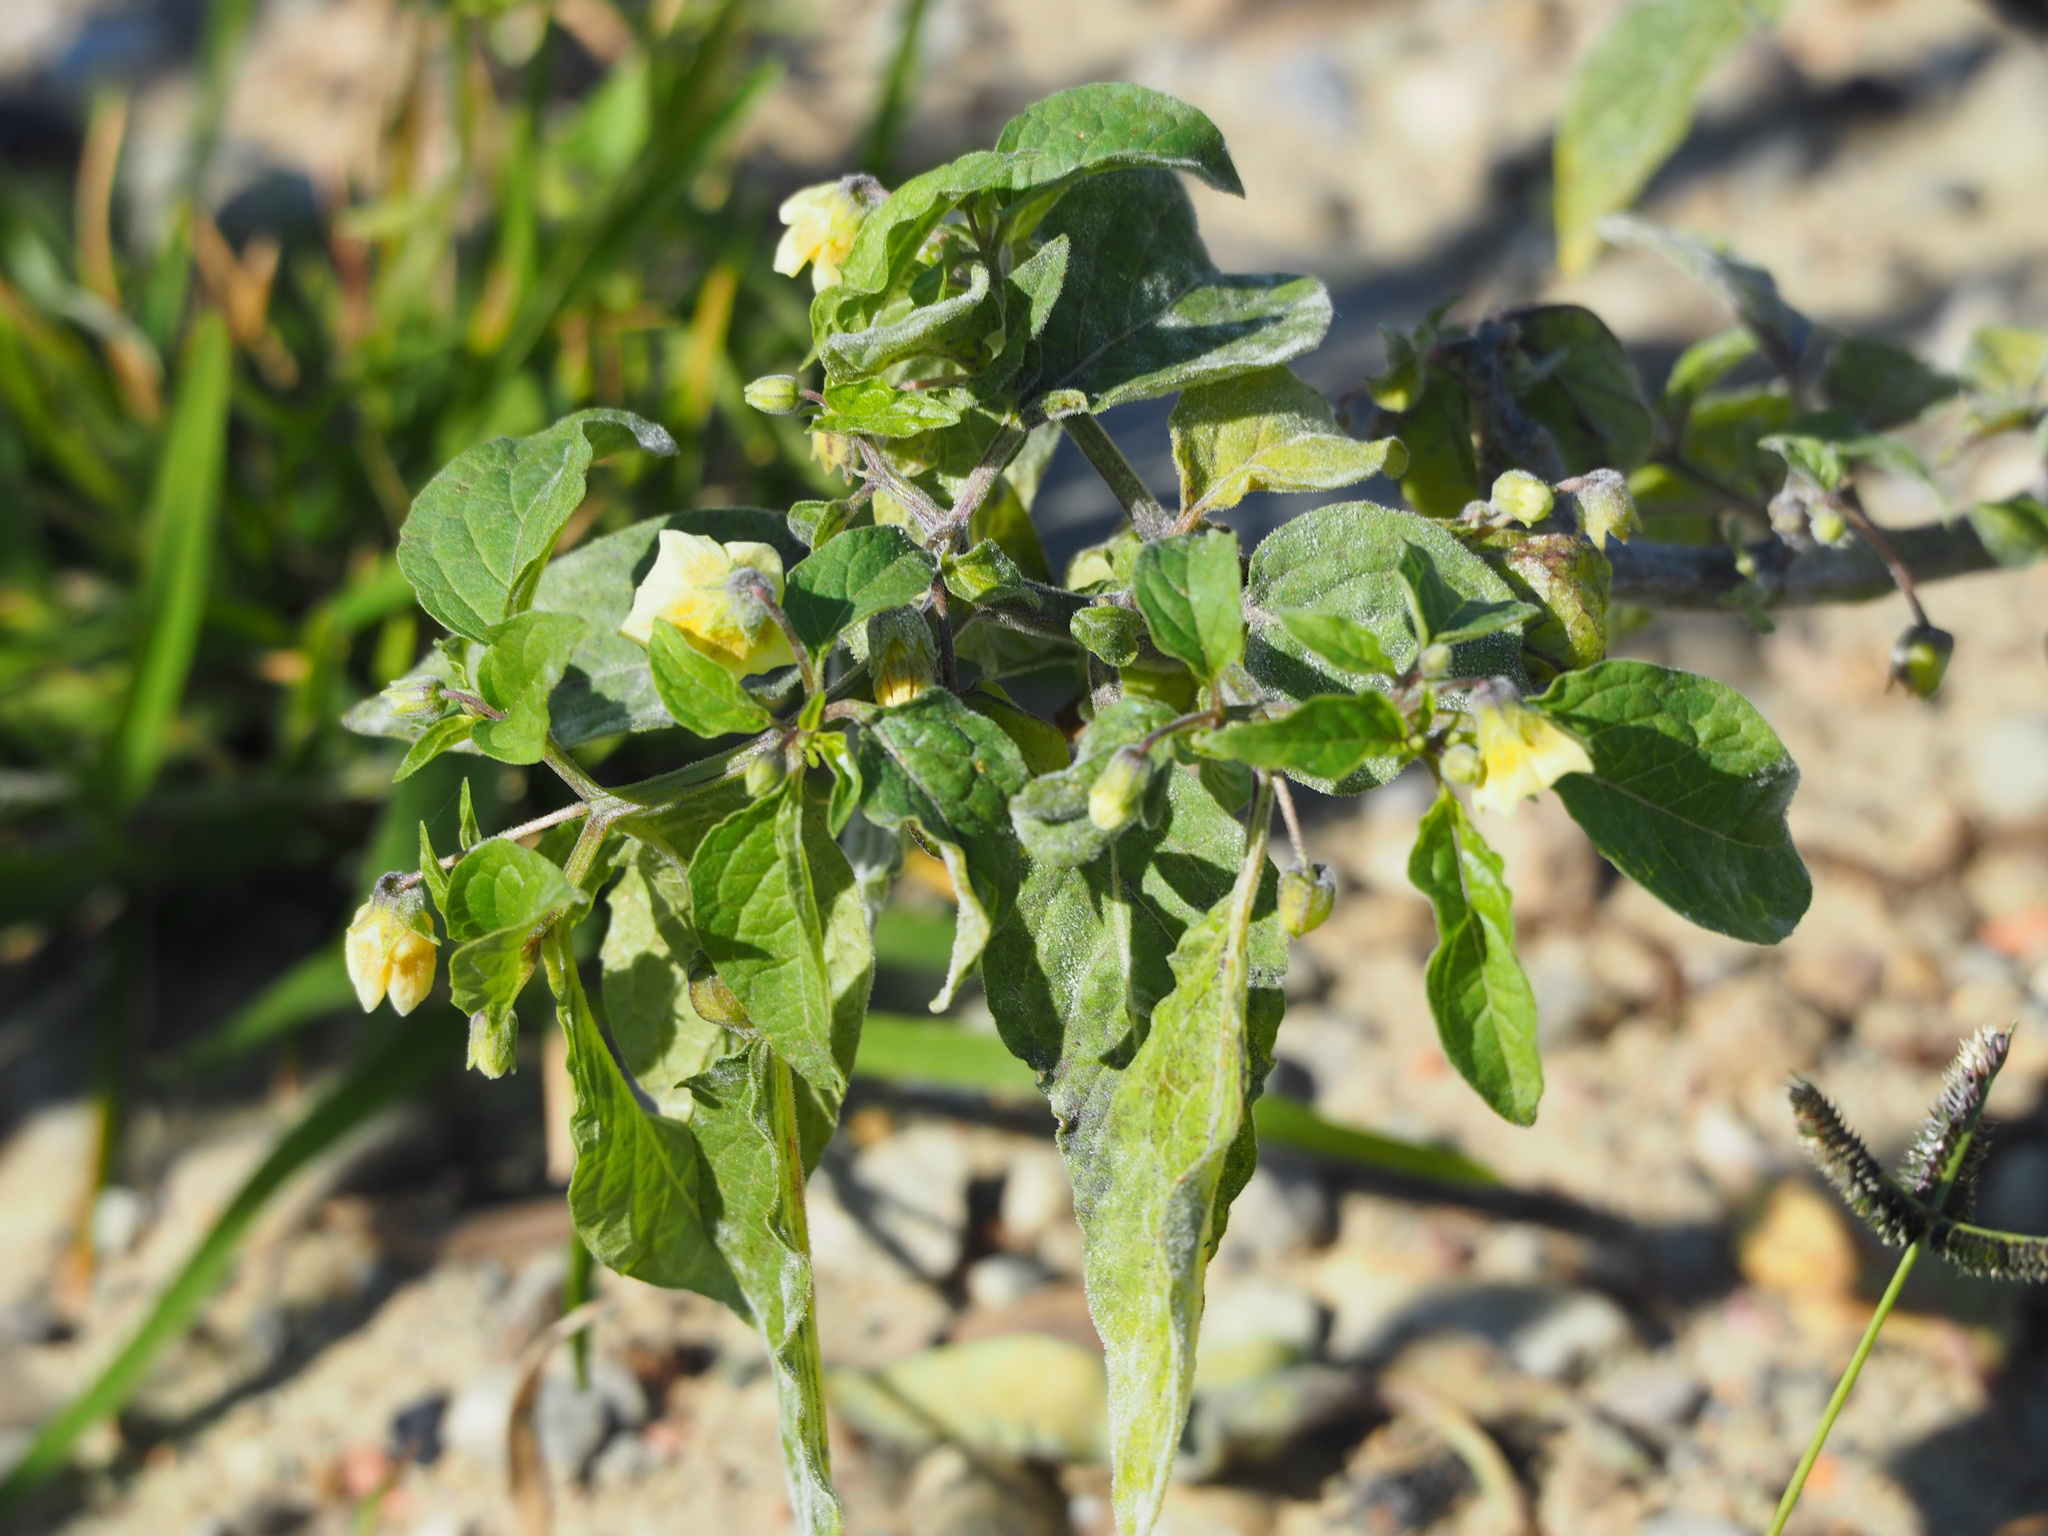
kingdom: Plantae
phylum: Tracheophyta
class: Magnoliopsida
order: Solanales
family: Solanaceae
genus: Physalis
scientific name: Physalis angulata
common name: Angular winter-cherry
